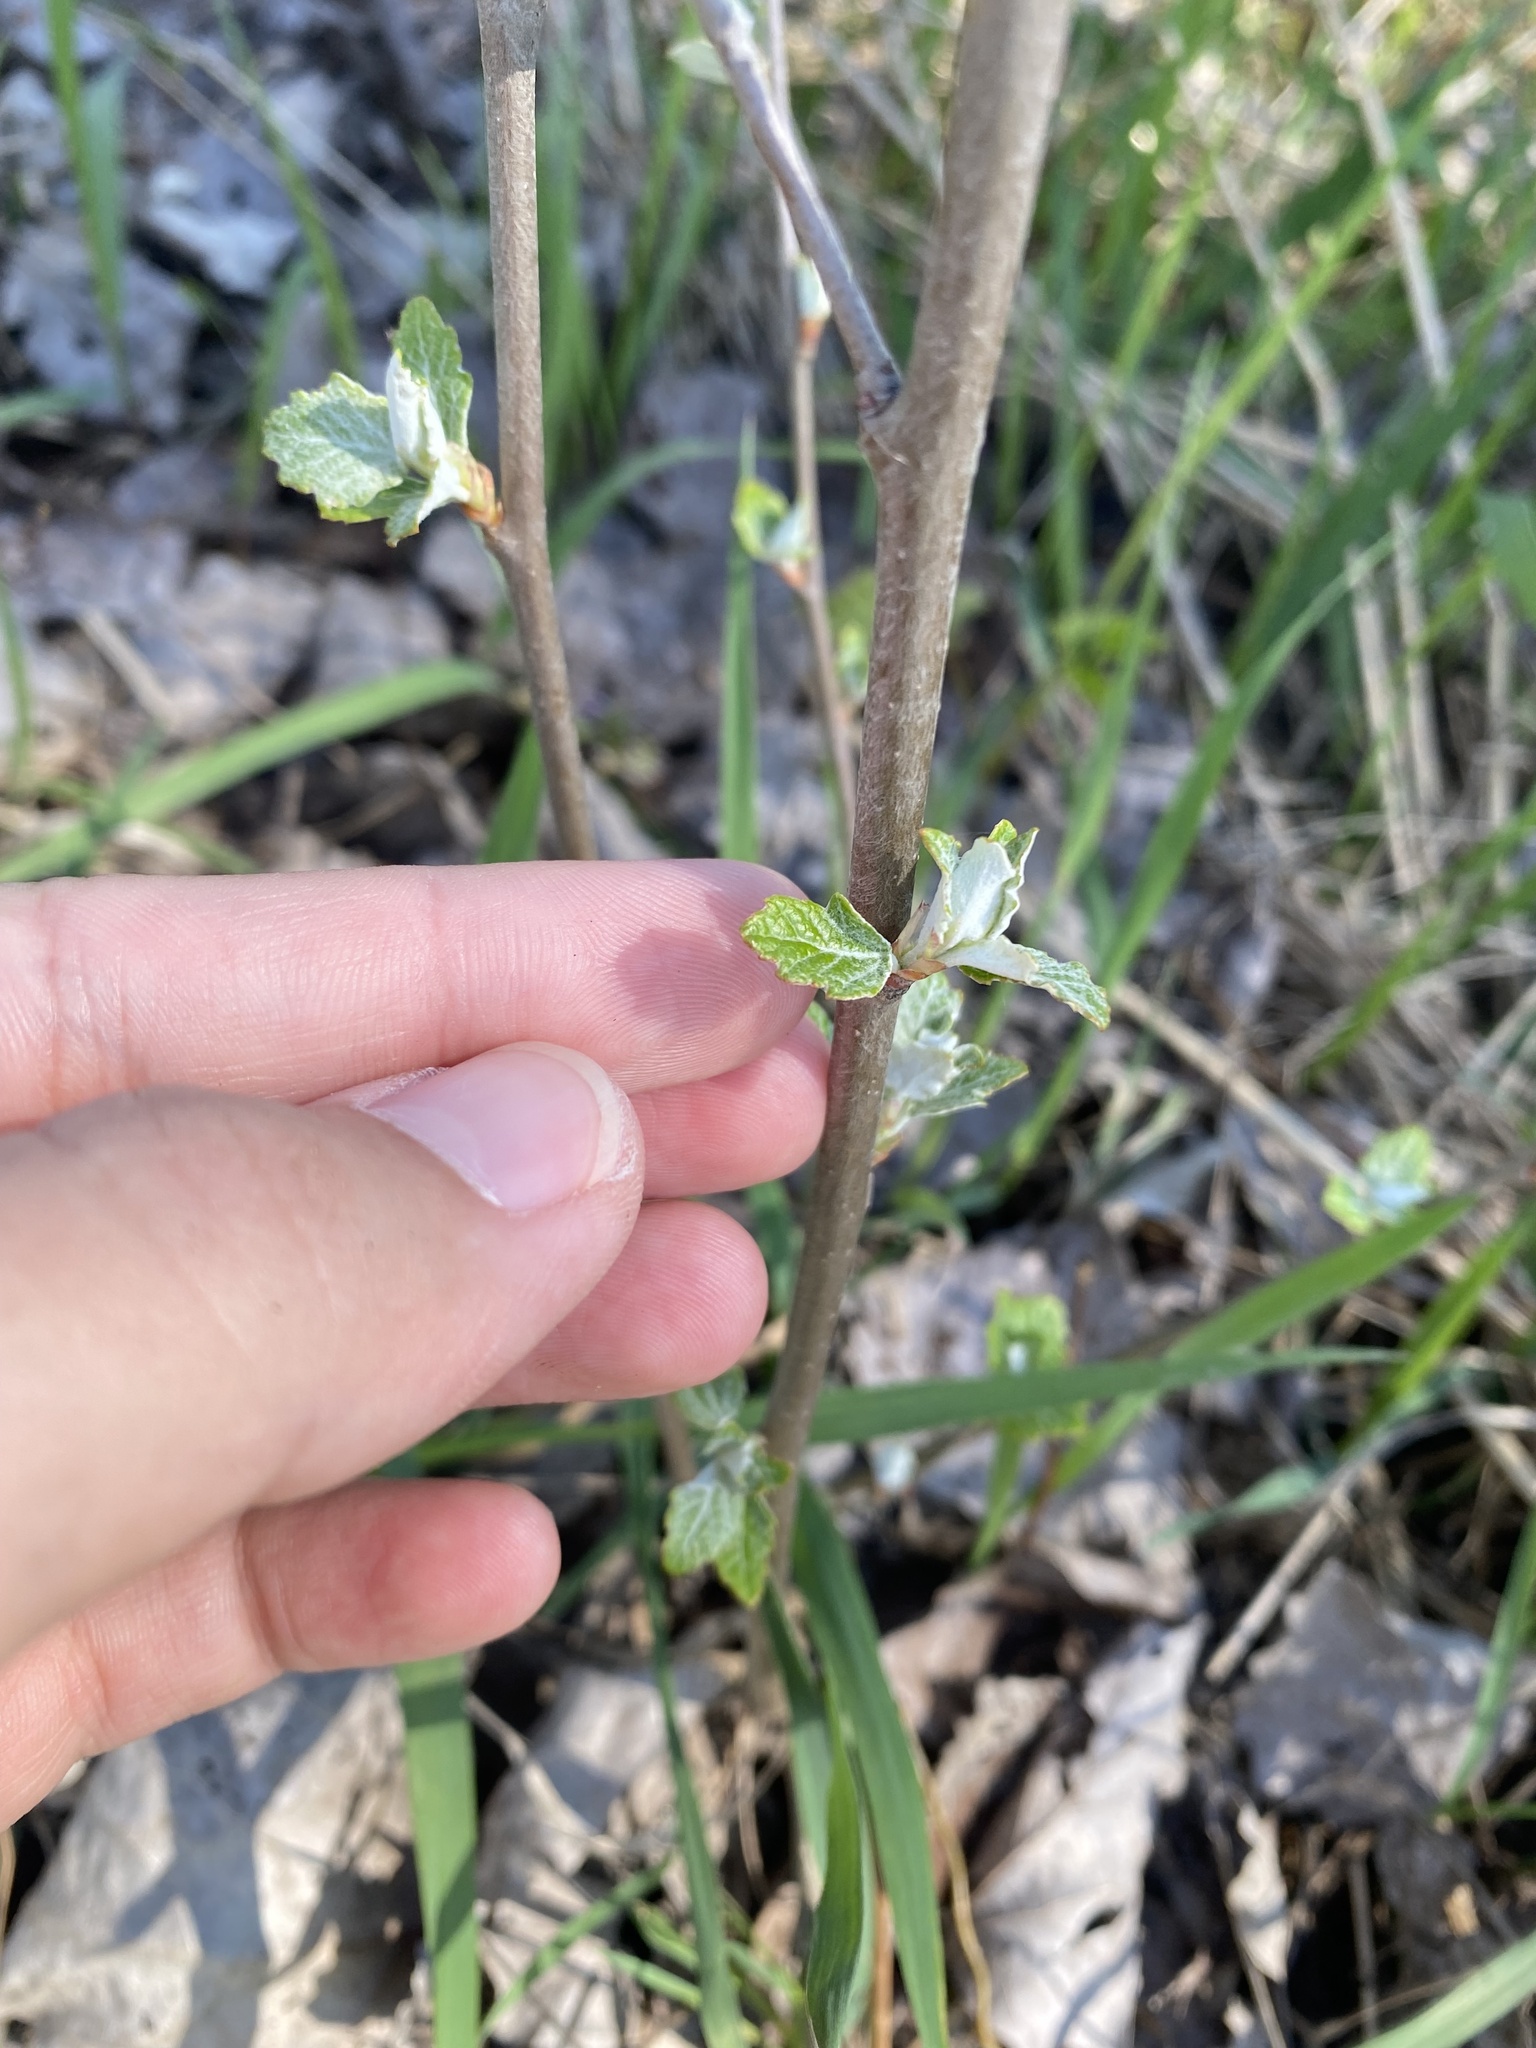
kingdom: Plantae
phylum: Tracheophyta
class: Magnoliopsida
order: Malpighiales
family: Salicaceae
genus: Populus
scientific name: Populus alba
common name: White poplar
